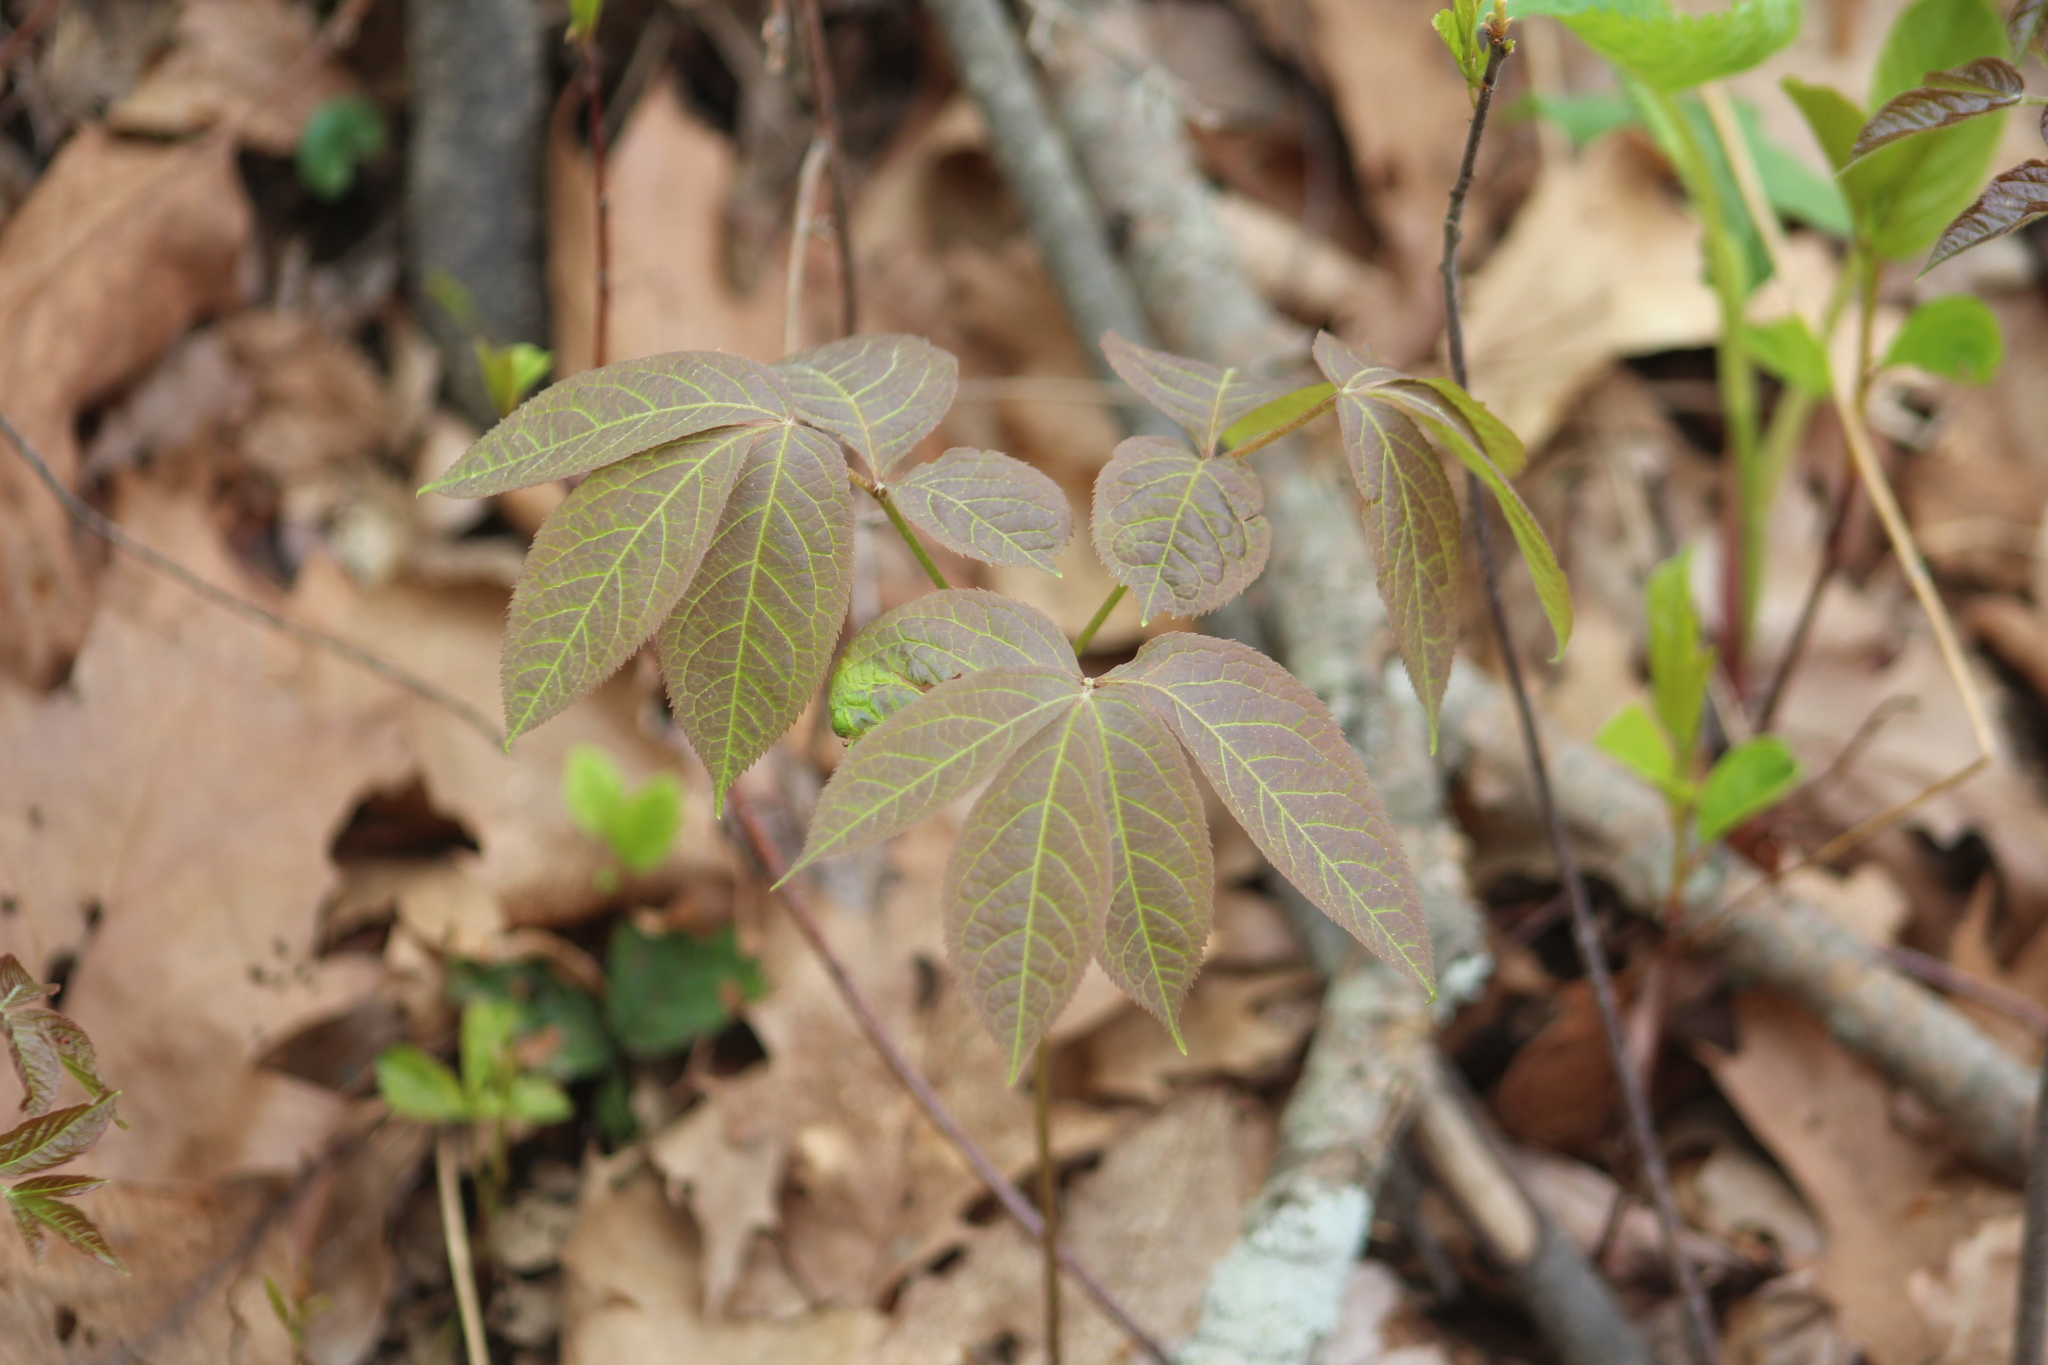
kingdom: Plantae
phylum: Tracheophyta
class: Magnoliopsida
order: Apiales
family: Araliaceae
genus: Aralia
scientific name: Aralia nudicaulis
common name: Wild sarsaparilla
